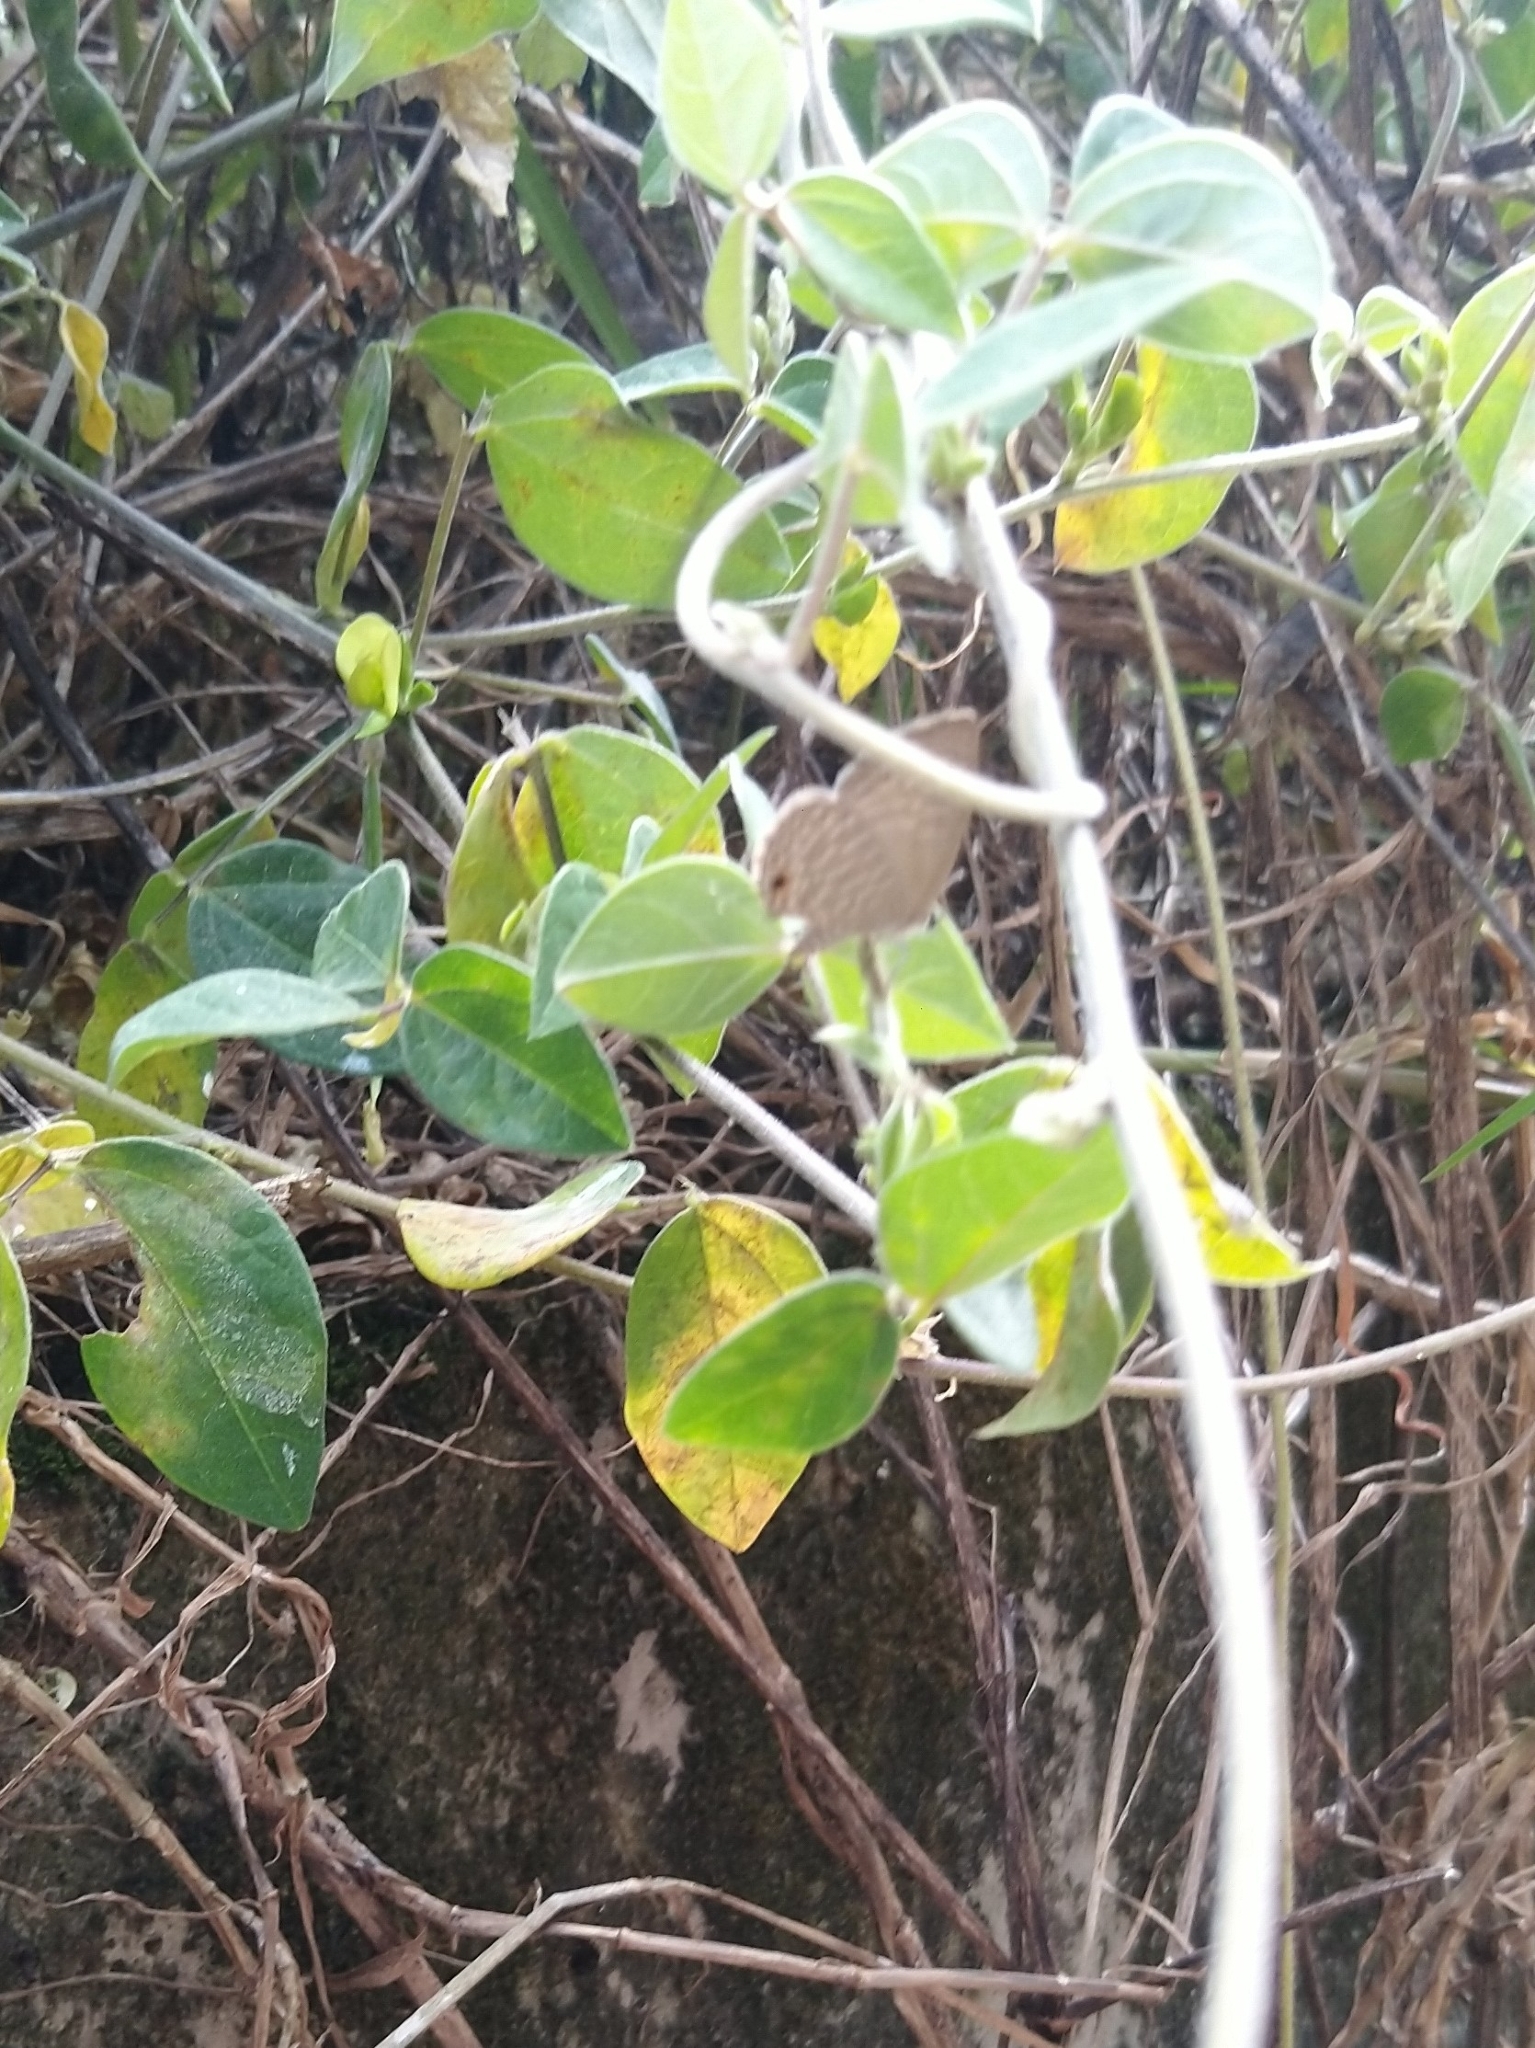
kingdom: Animalia
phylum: Arthropoda
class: Insecta
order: Lepidoptera
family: Lycaenidae
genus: Prosotas
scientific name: Prosotas nora
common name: Common line blue
